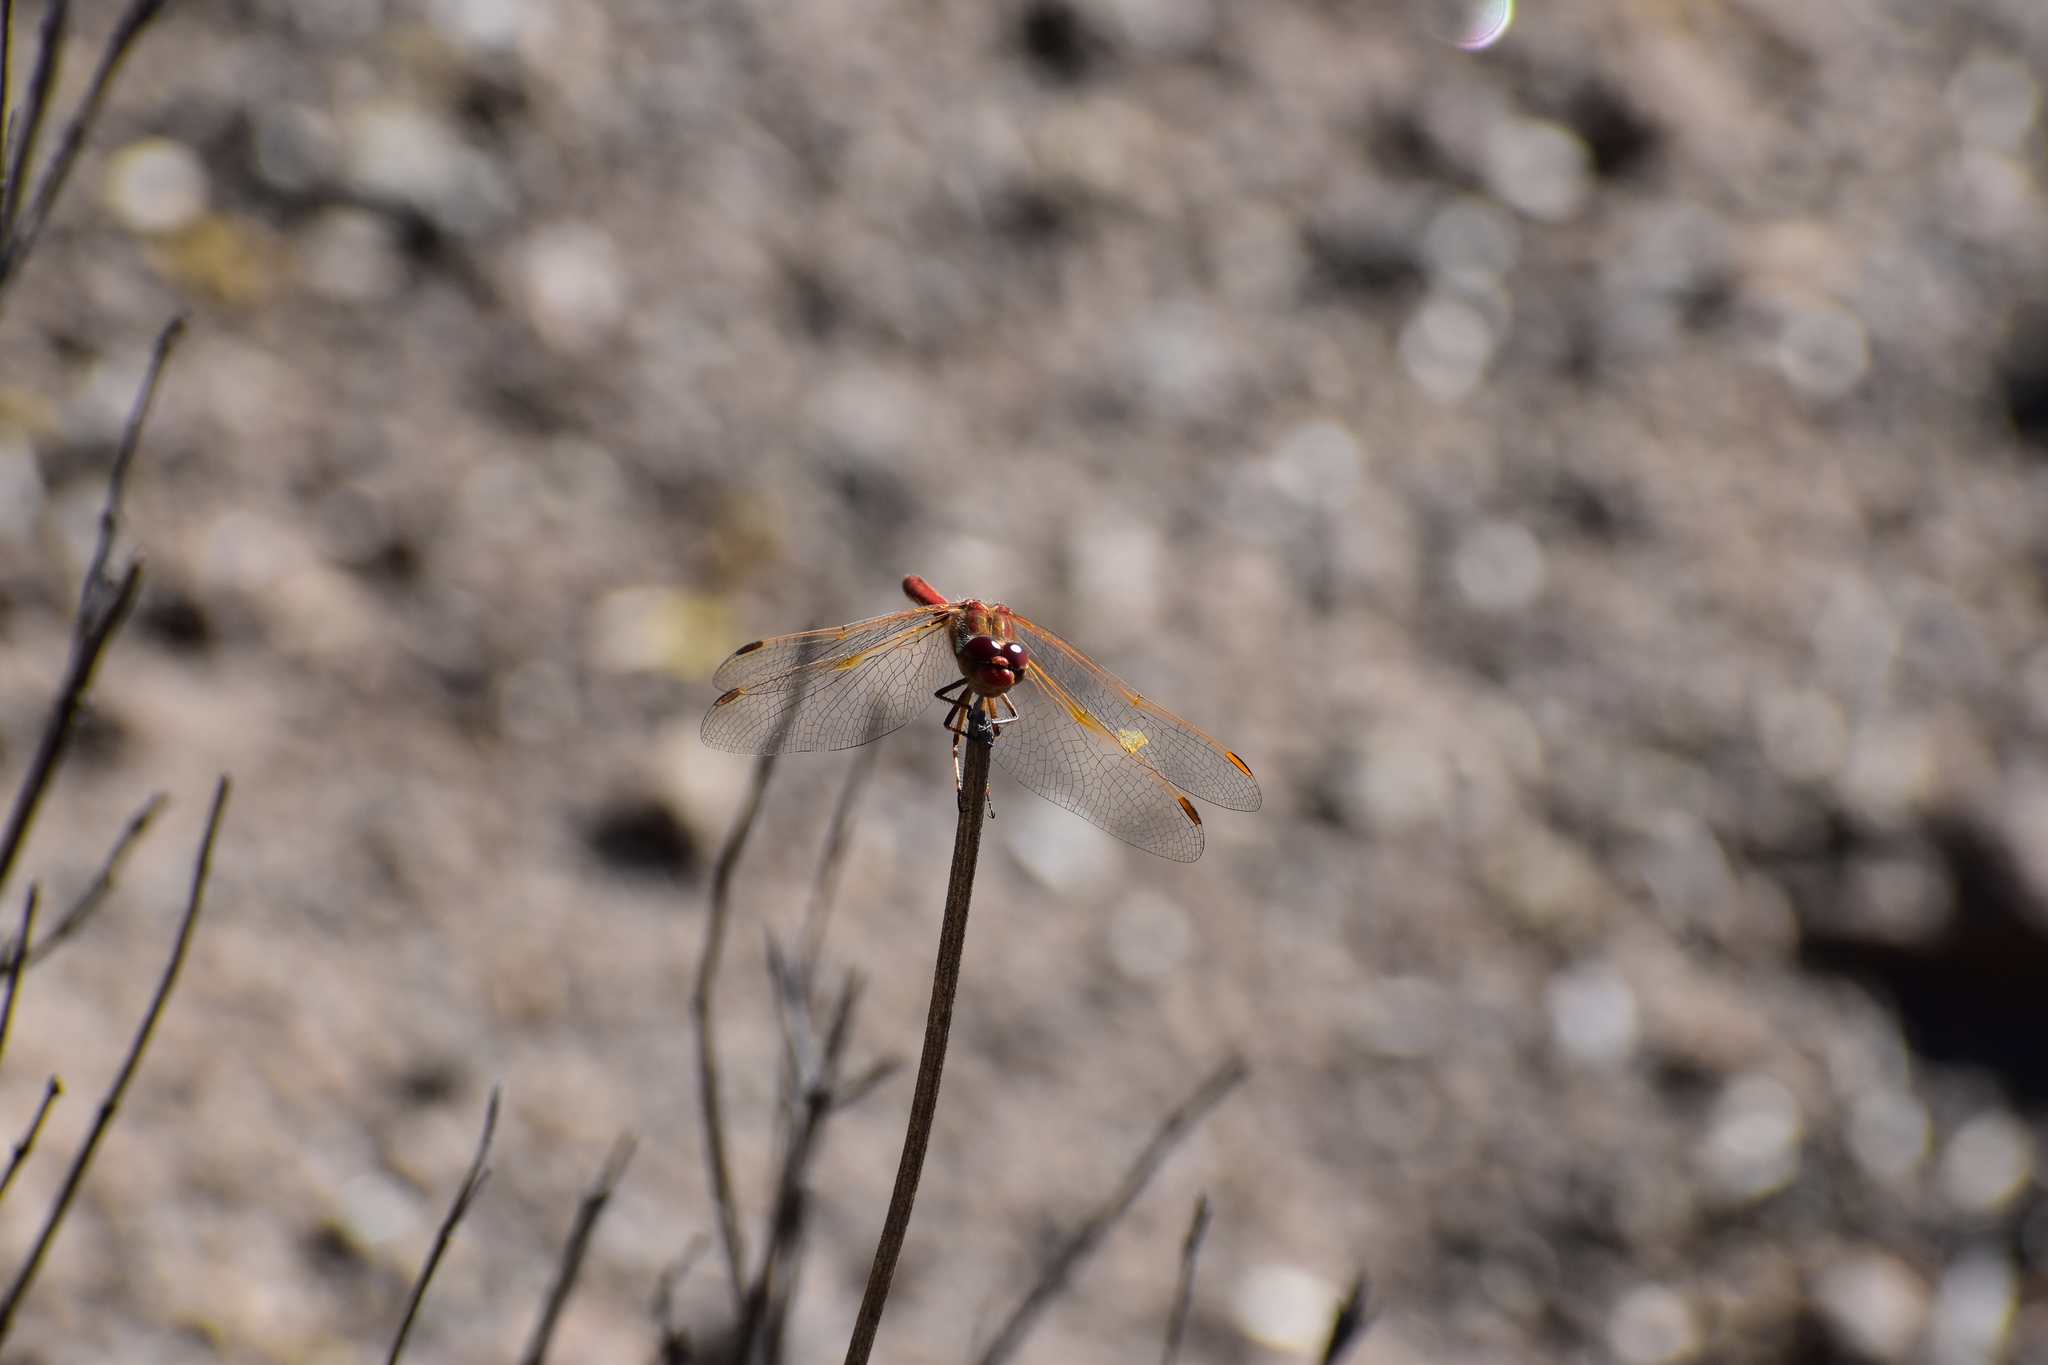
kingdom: Animalia
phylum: Arthropoda
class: Insecta
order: Odonata
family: Libellulidae
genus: Sympetrum
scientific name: Sympetrum gilvum
